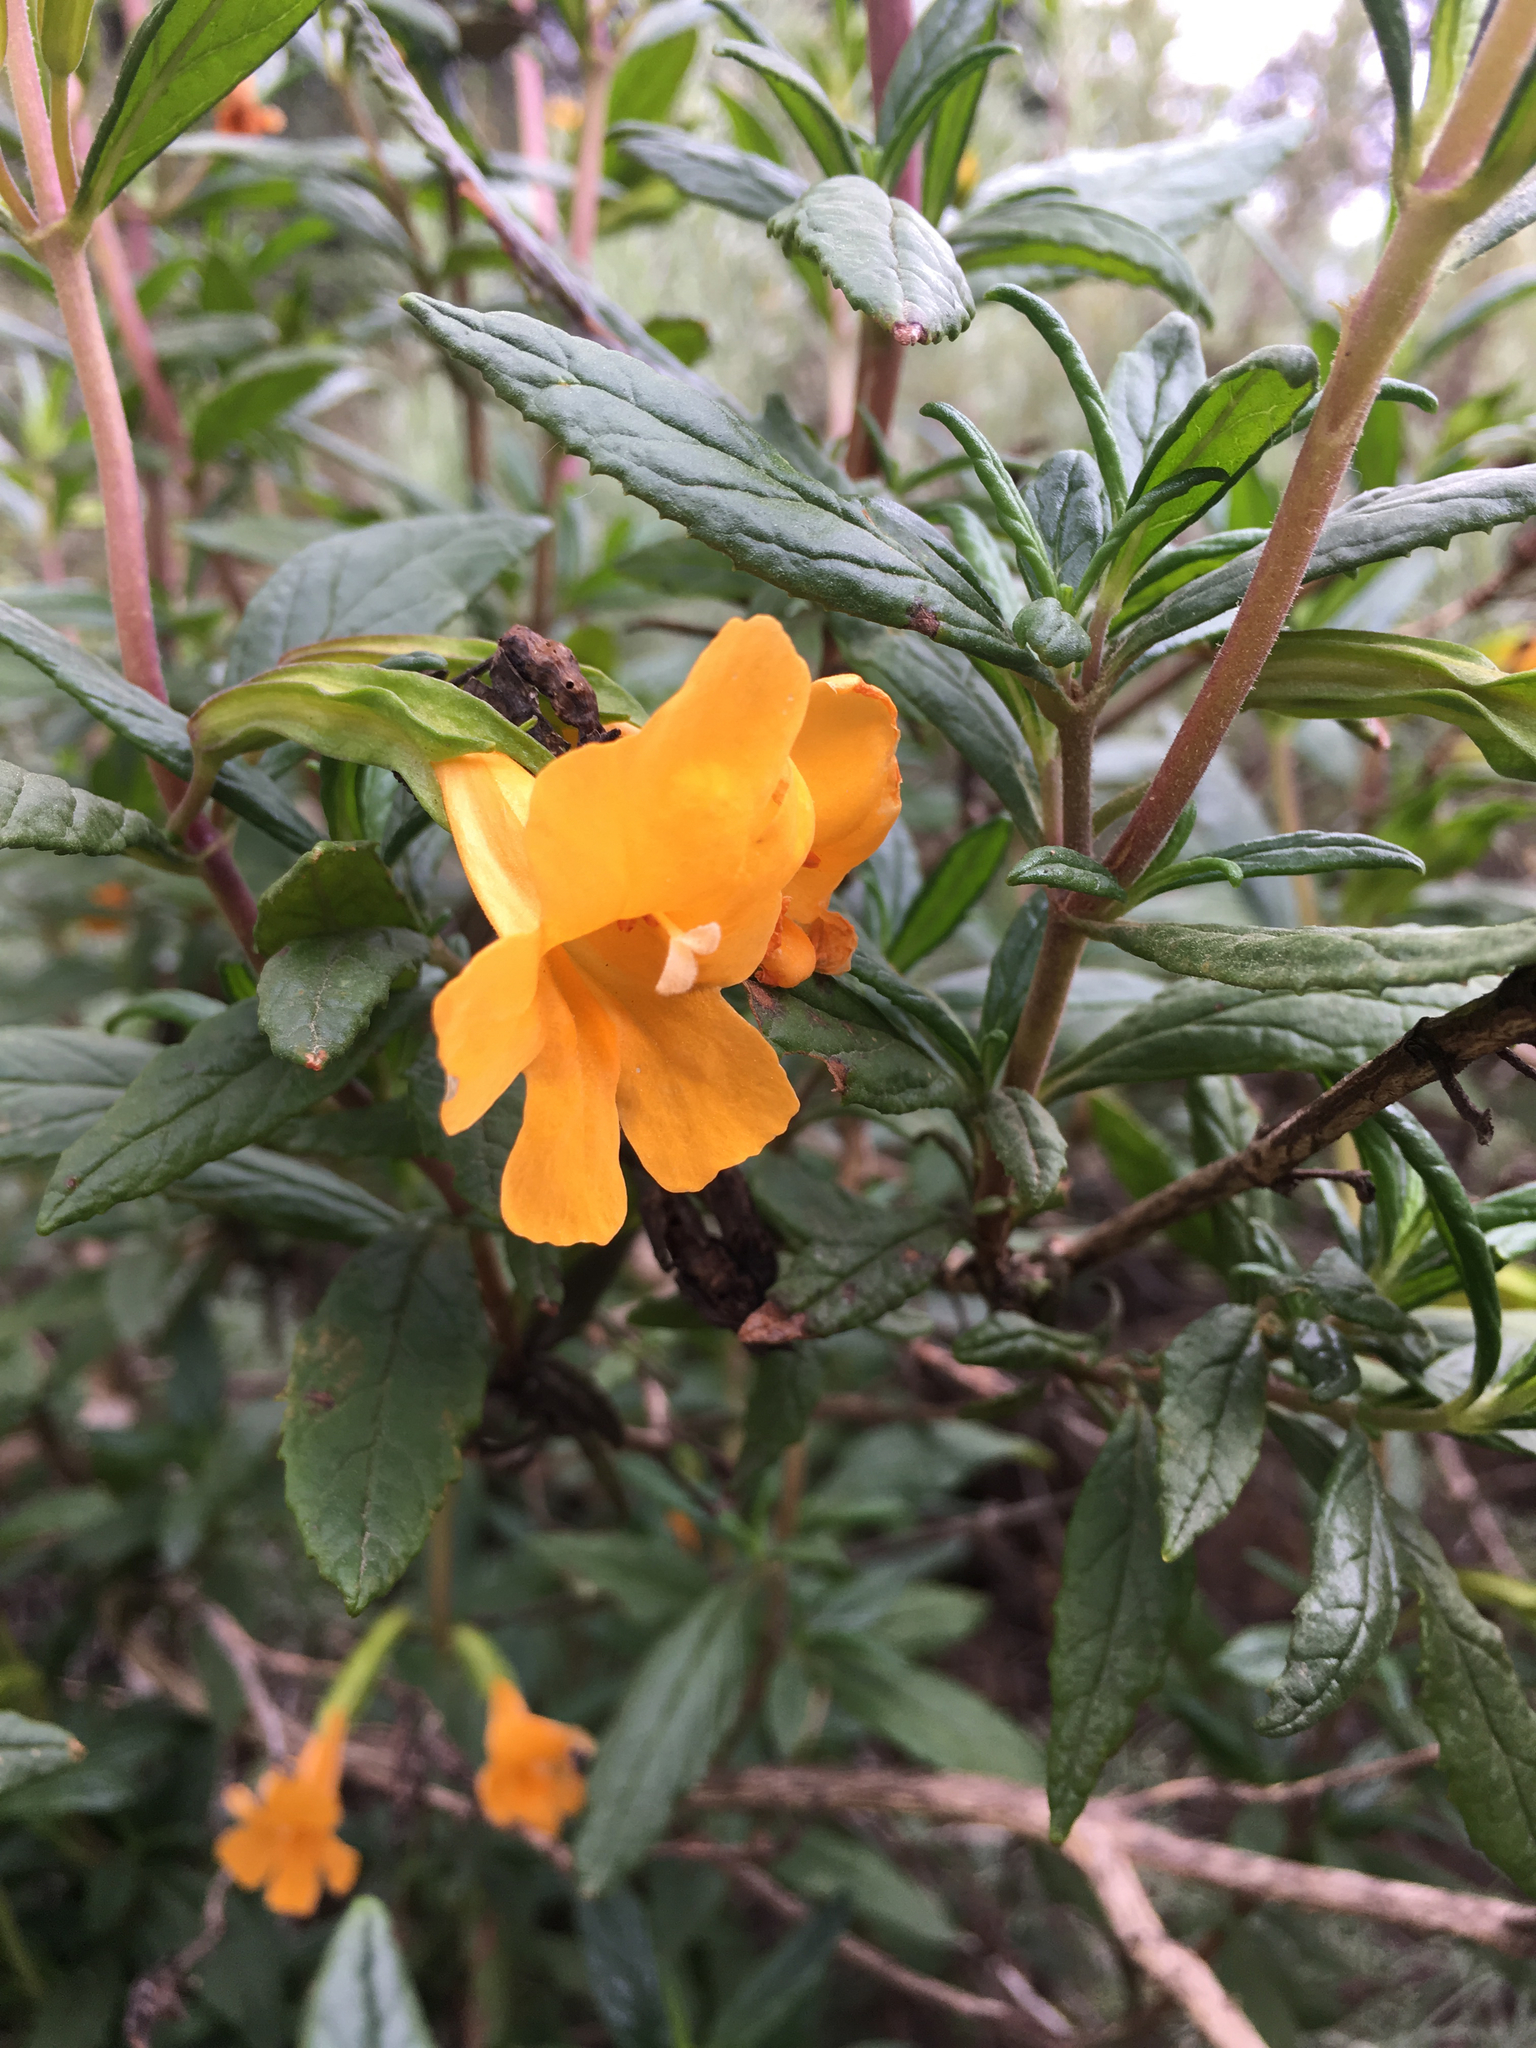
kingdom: Plantae
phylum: Tracheophyta
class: Magnoliopsida
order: Lamiales
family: Phrymaceae
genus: Diplacus
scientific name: Diplacus aurantiacus
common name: Bush monkey-flower
